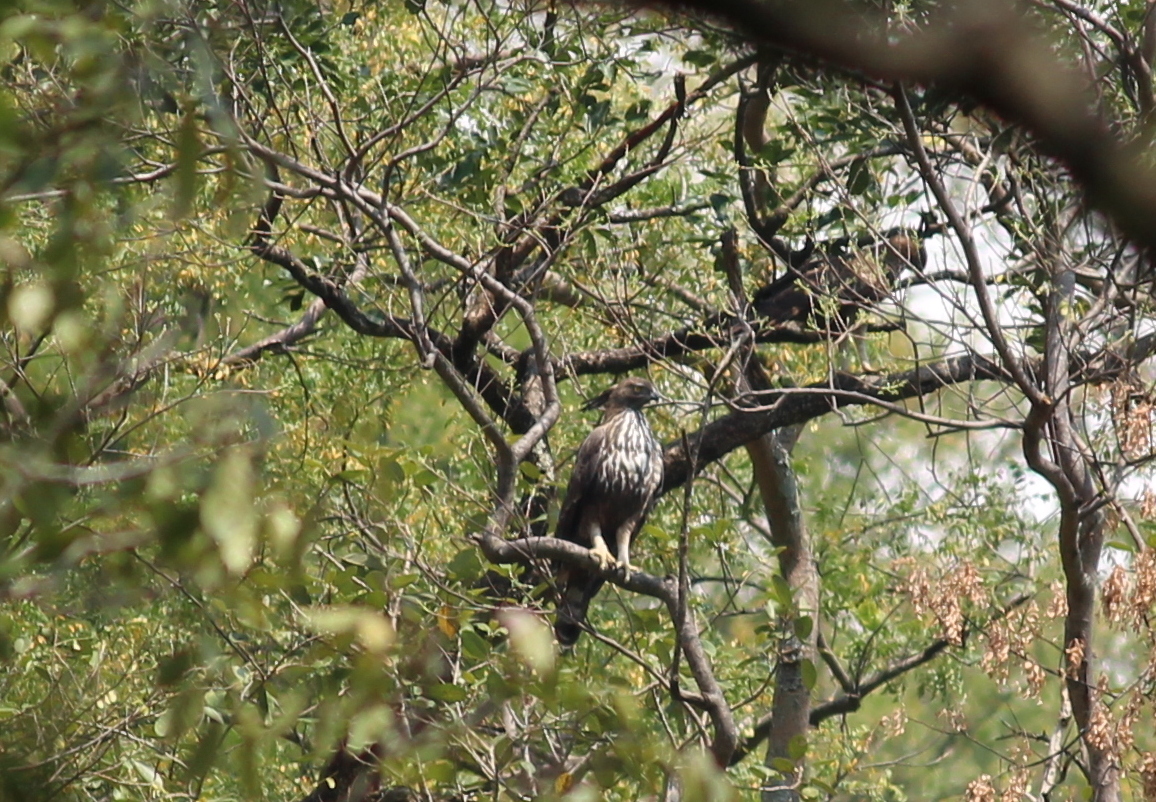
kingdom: Animalia
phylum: Chordata
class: Aves
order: Accipitriformes
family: Accipitridae
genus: Nisaetus
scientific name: Nisaetus cirrhatus
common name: Changeable hawk-eagle
